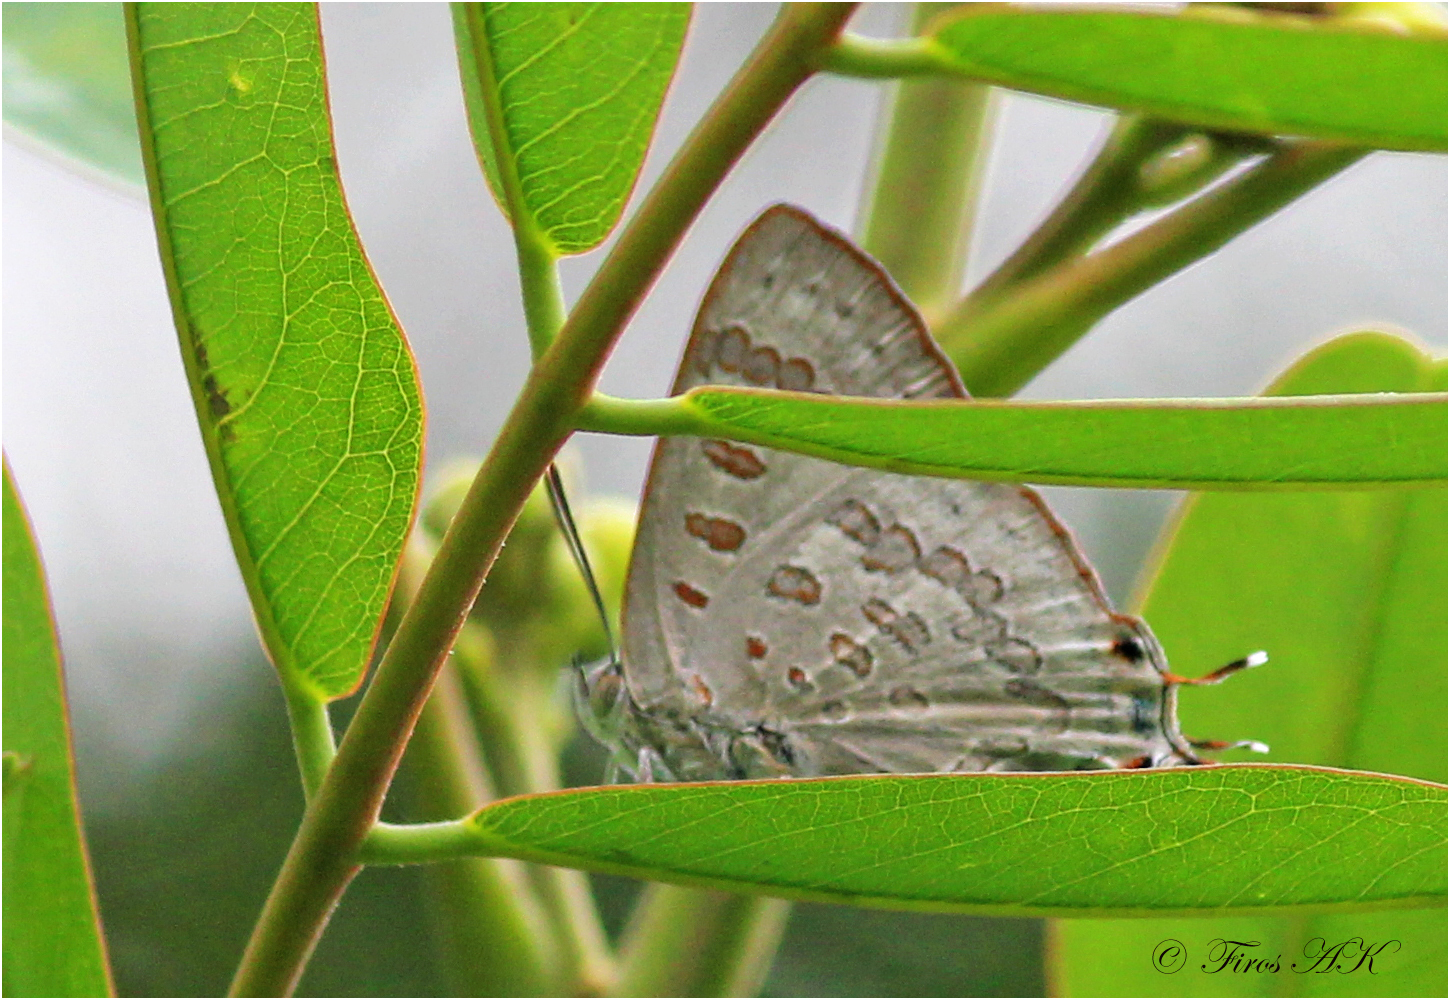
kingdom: Animalia
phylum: Arthropoda
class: Insecta
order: Lepidoptera
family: Lycaenidae
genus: Zesius
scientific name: Zesius chrysomallus
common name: Redspot
